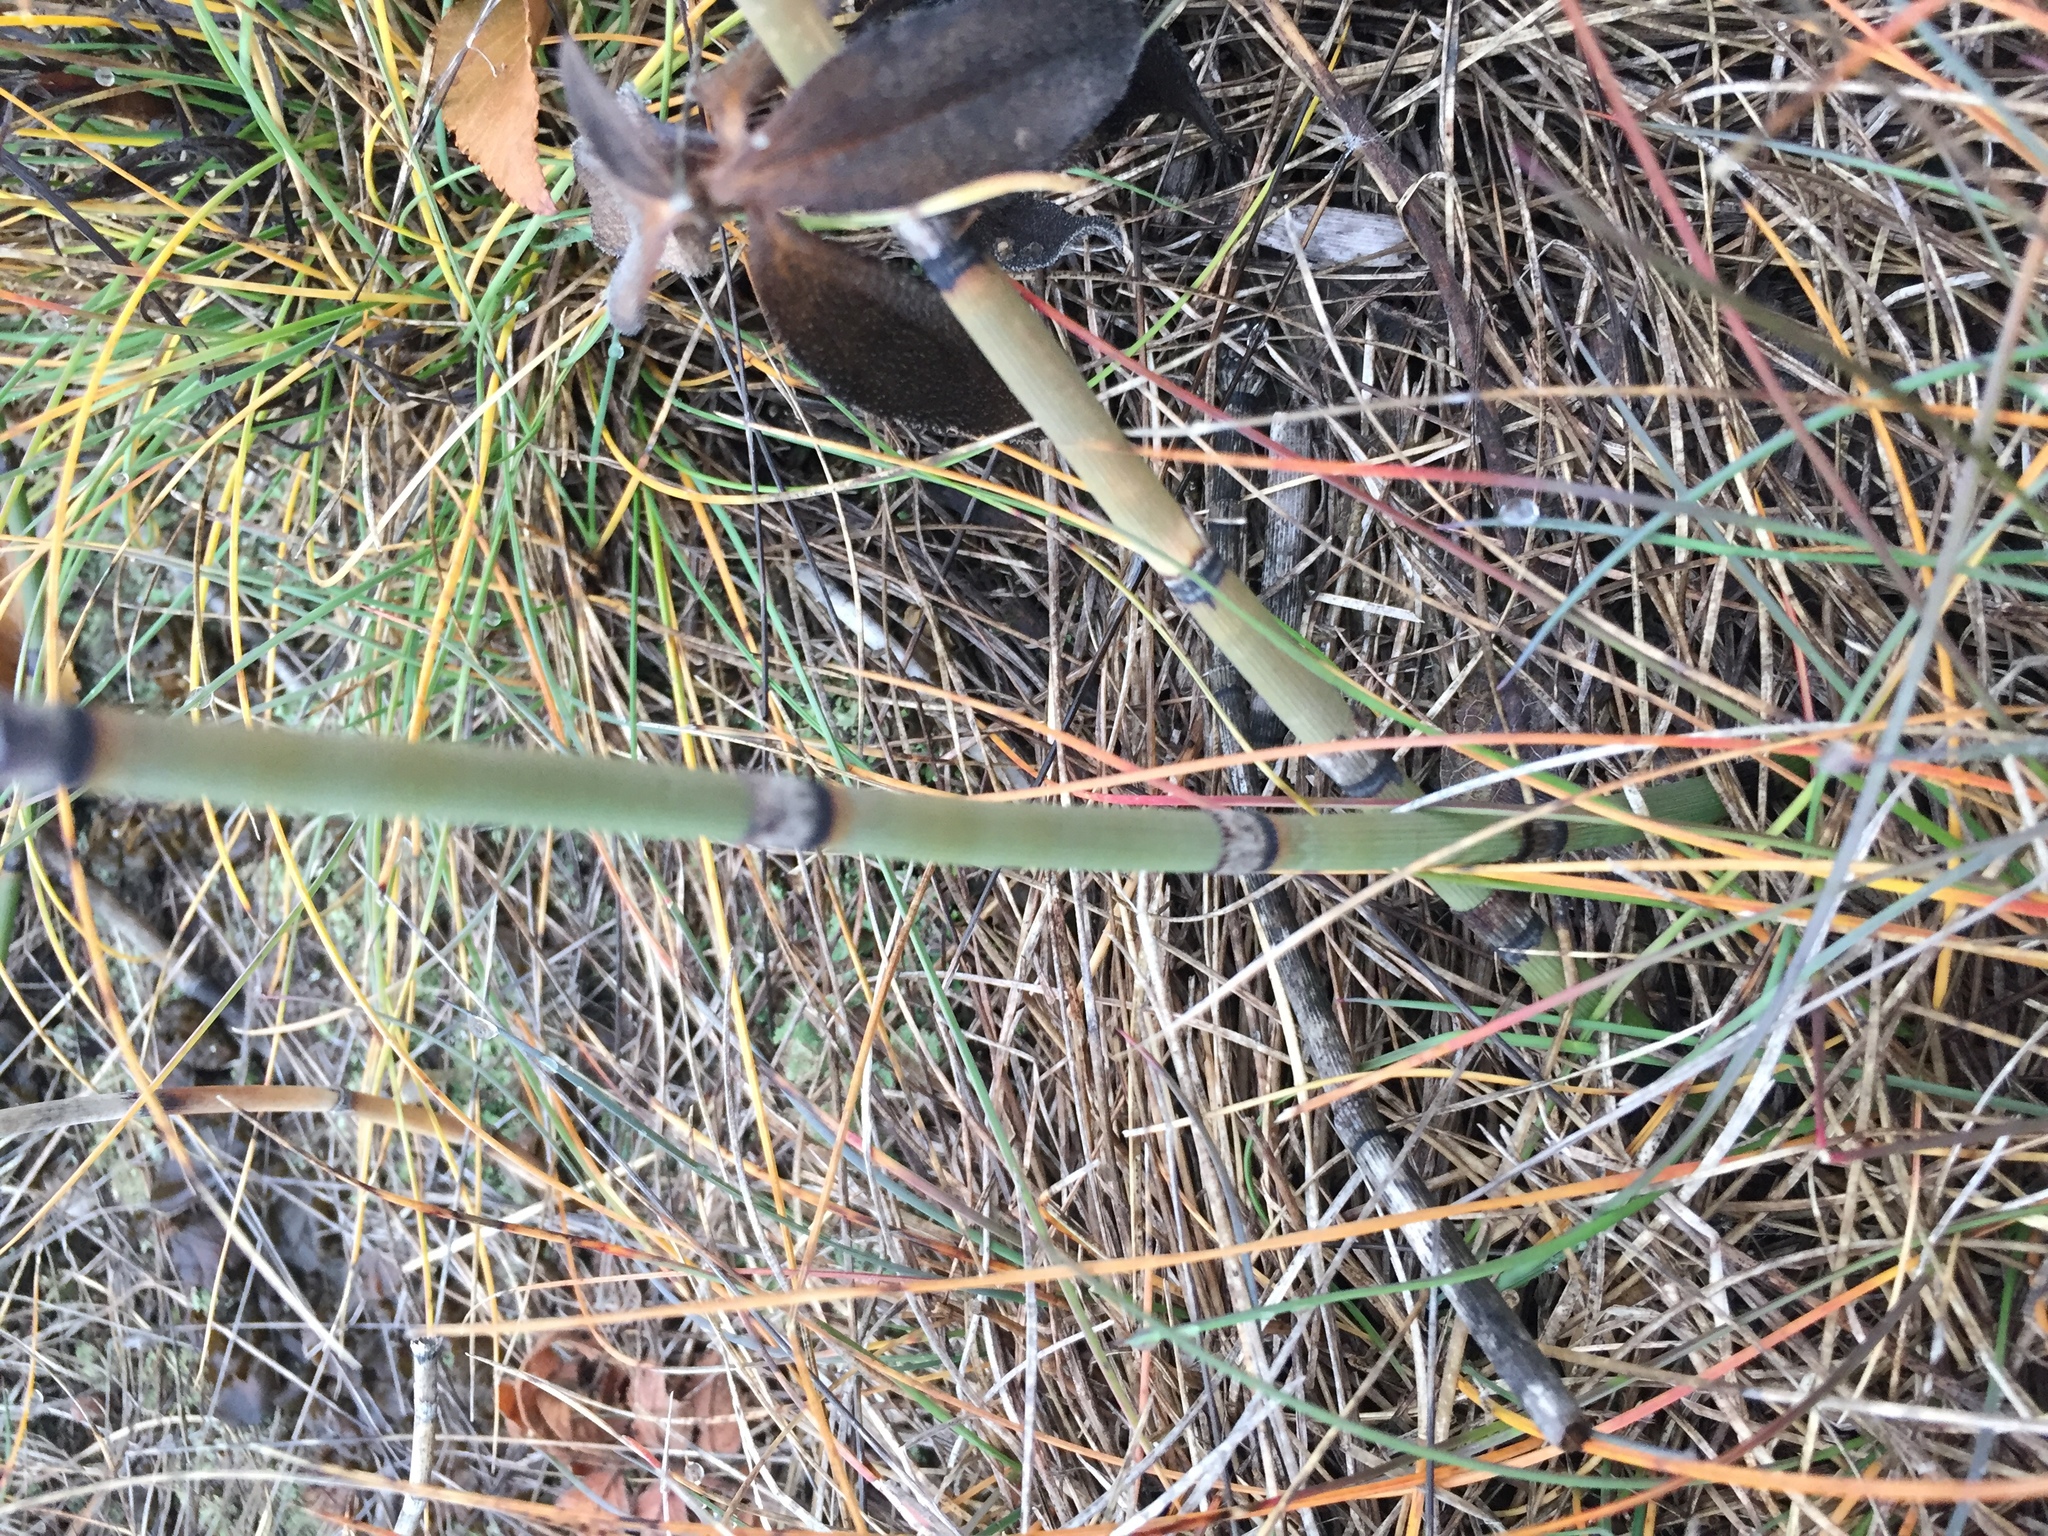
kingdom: Plantae
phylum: Tracheophyta
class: Polypodiopsida
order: Equisetales
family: Equisetaceae
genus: Equisetum
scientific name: Equisetum praealtum
